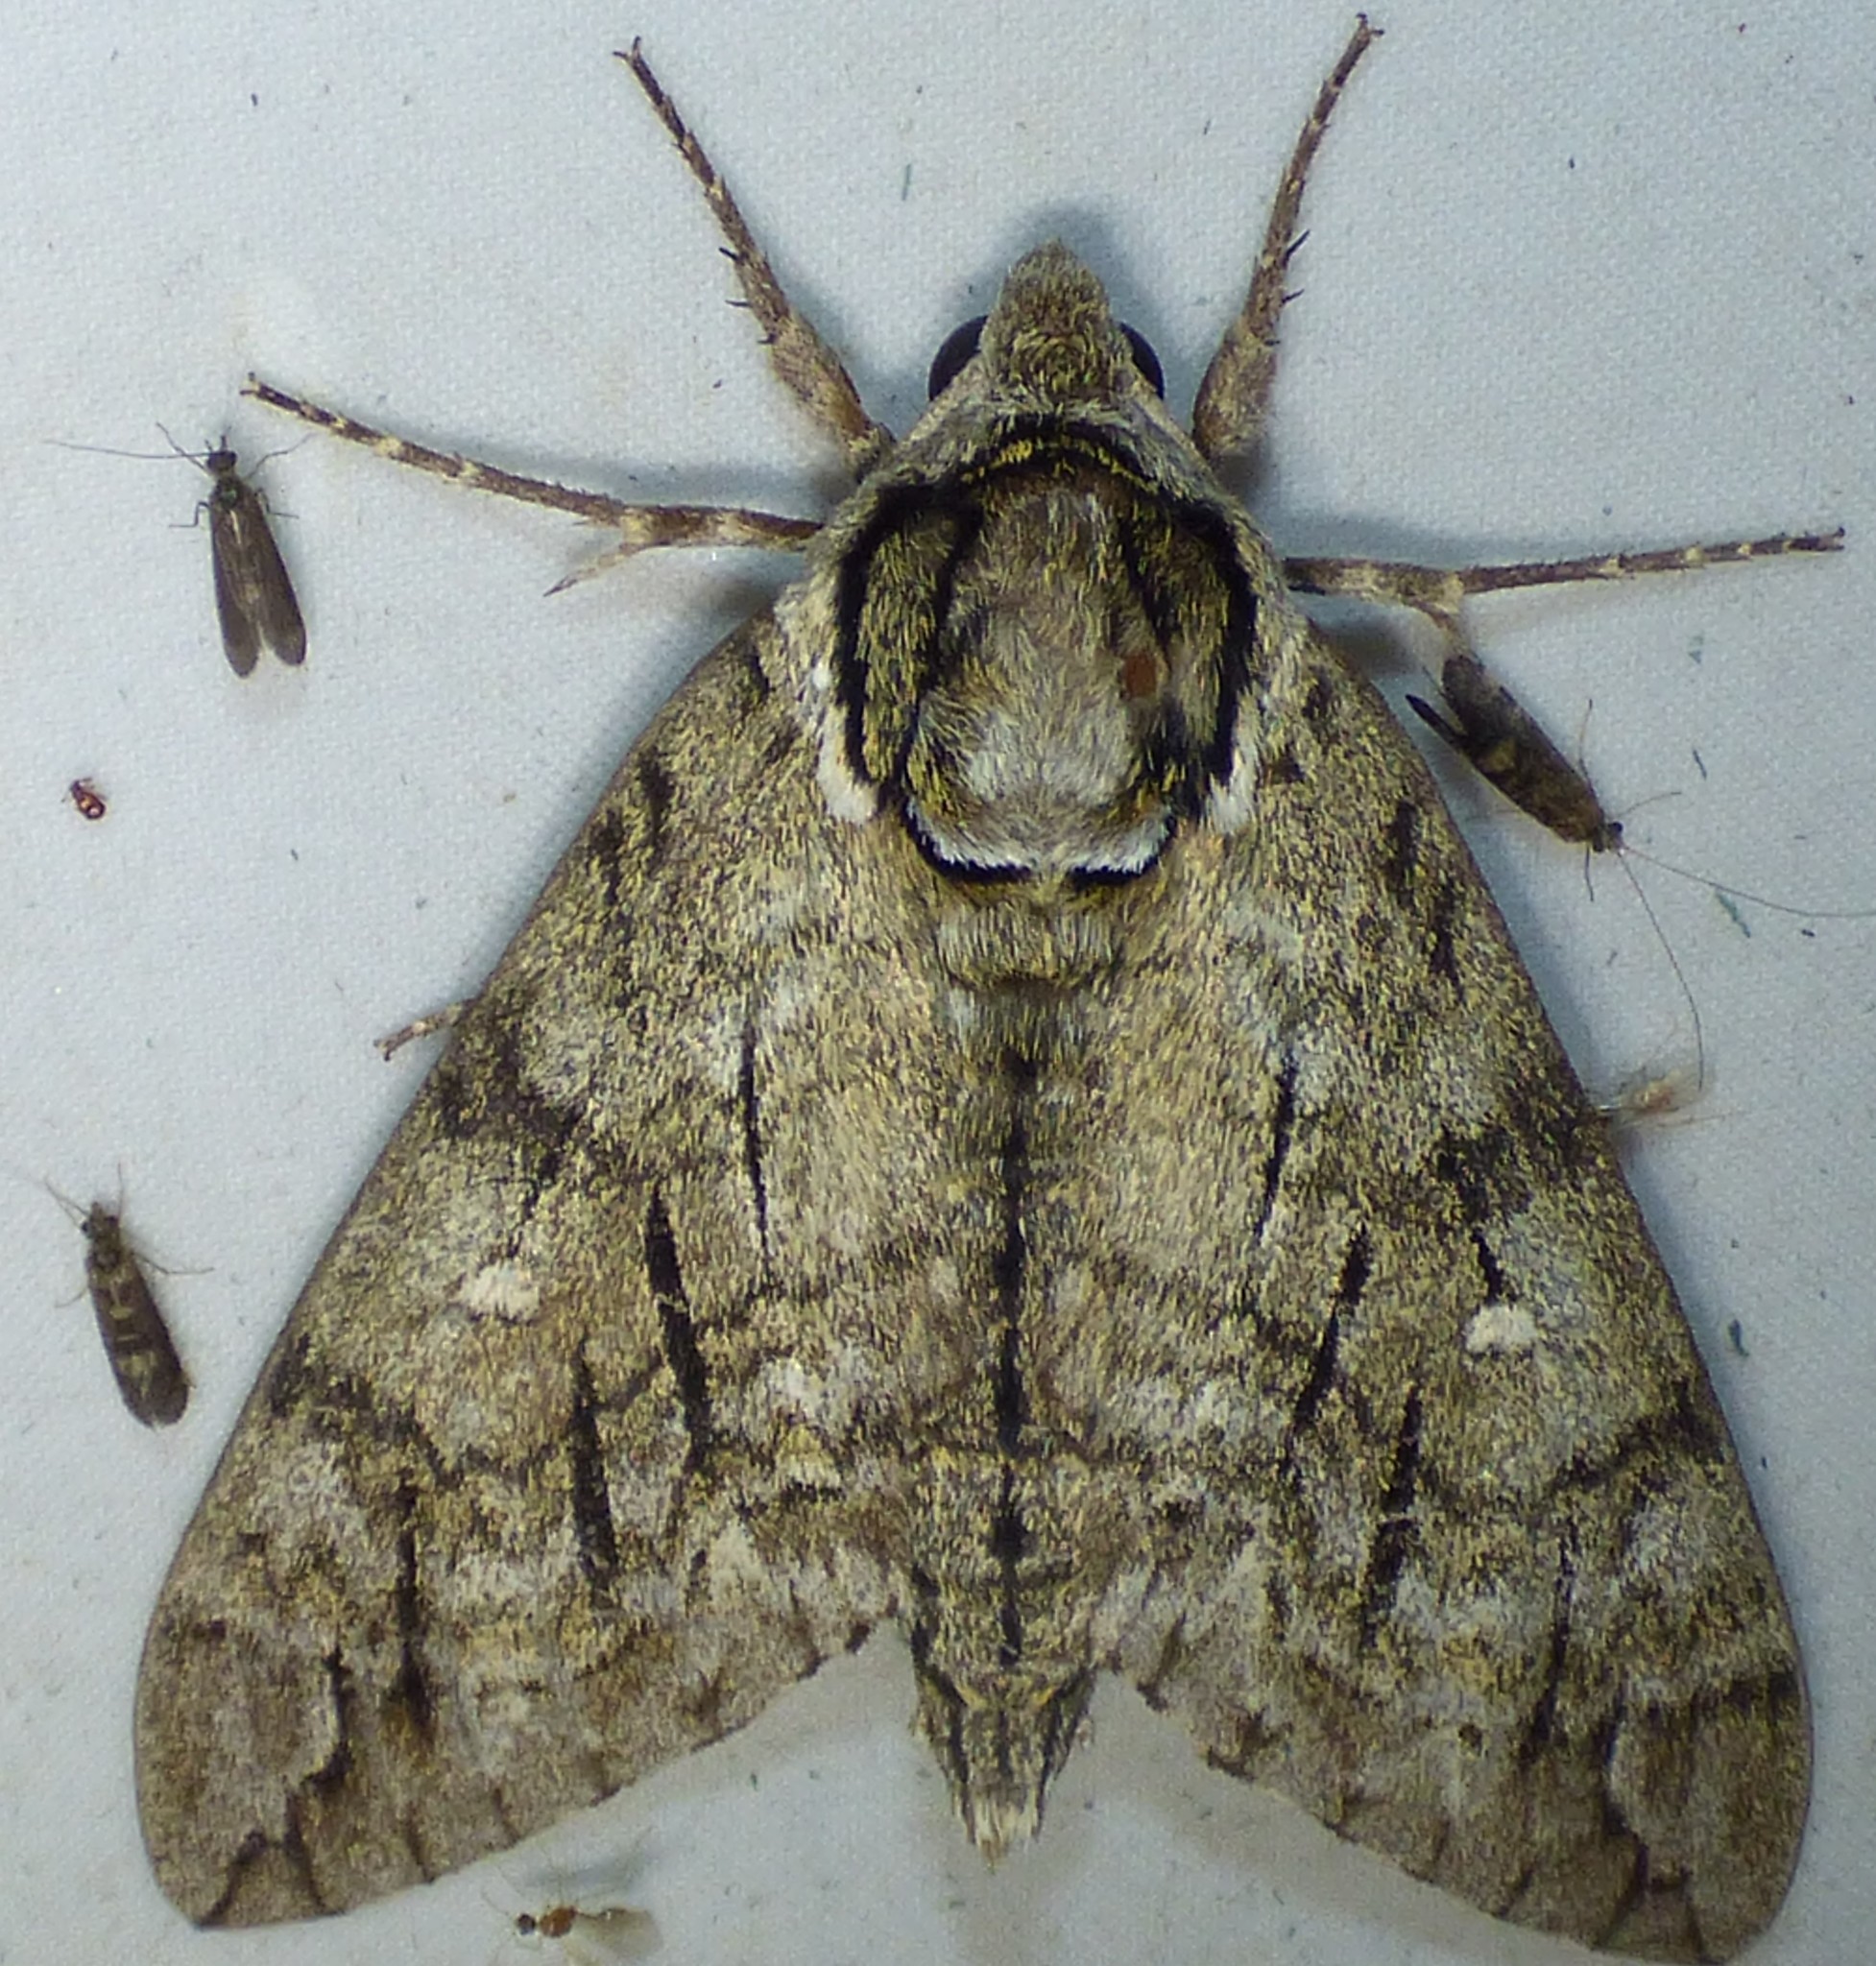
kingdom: Animalia
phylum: Arthropoda
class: Insecta
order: Lepidoptera
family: Sphingidae
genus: Ceratomia
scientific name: Ceratomia undulosa
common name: Waved sphinx
